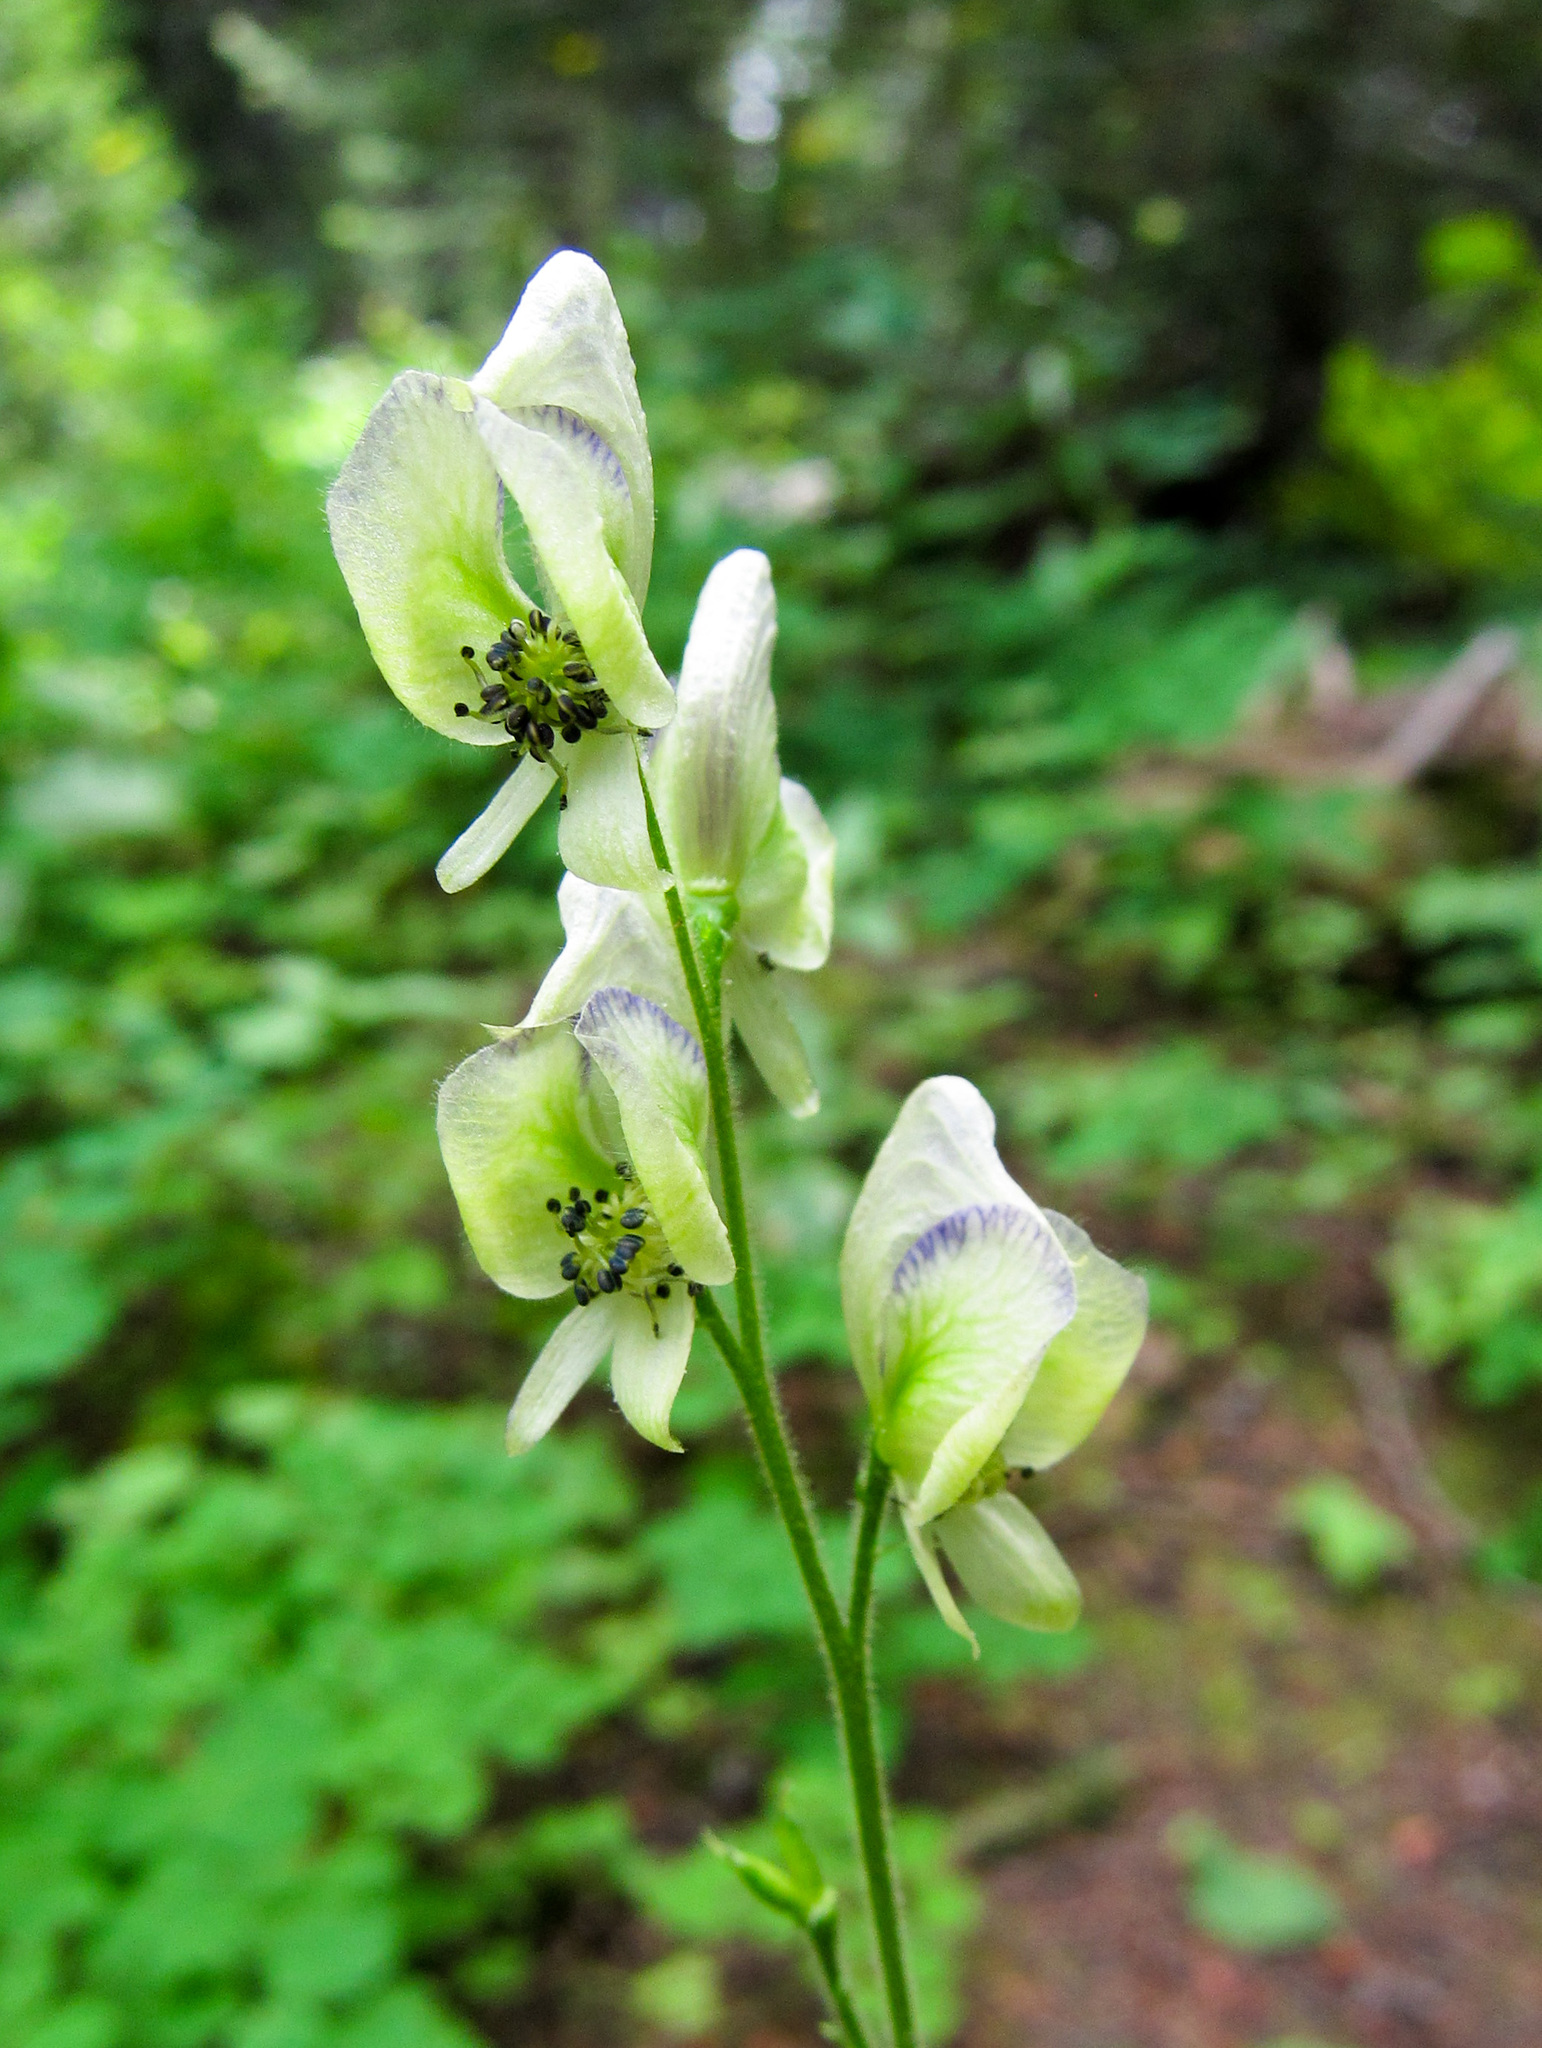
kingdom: Plantae
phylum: Tracheophyta
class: Magnoliopsida
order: Ranunculales
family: Ranunculaceae
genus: Aconitum
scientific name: Aconitum columbianum
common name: Columbia aconite
